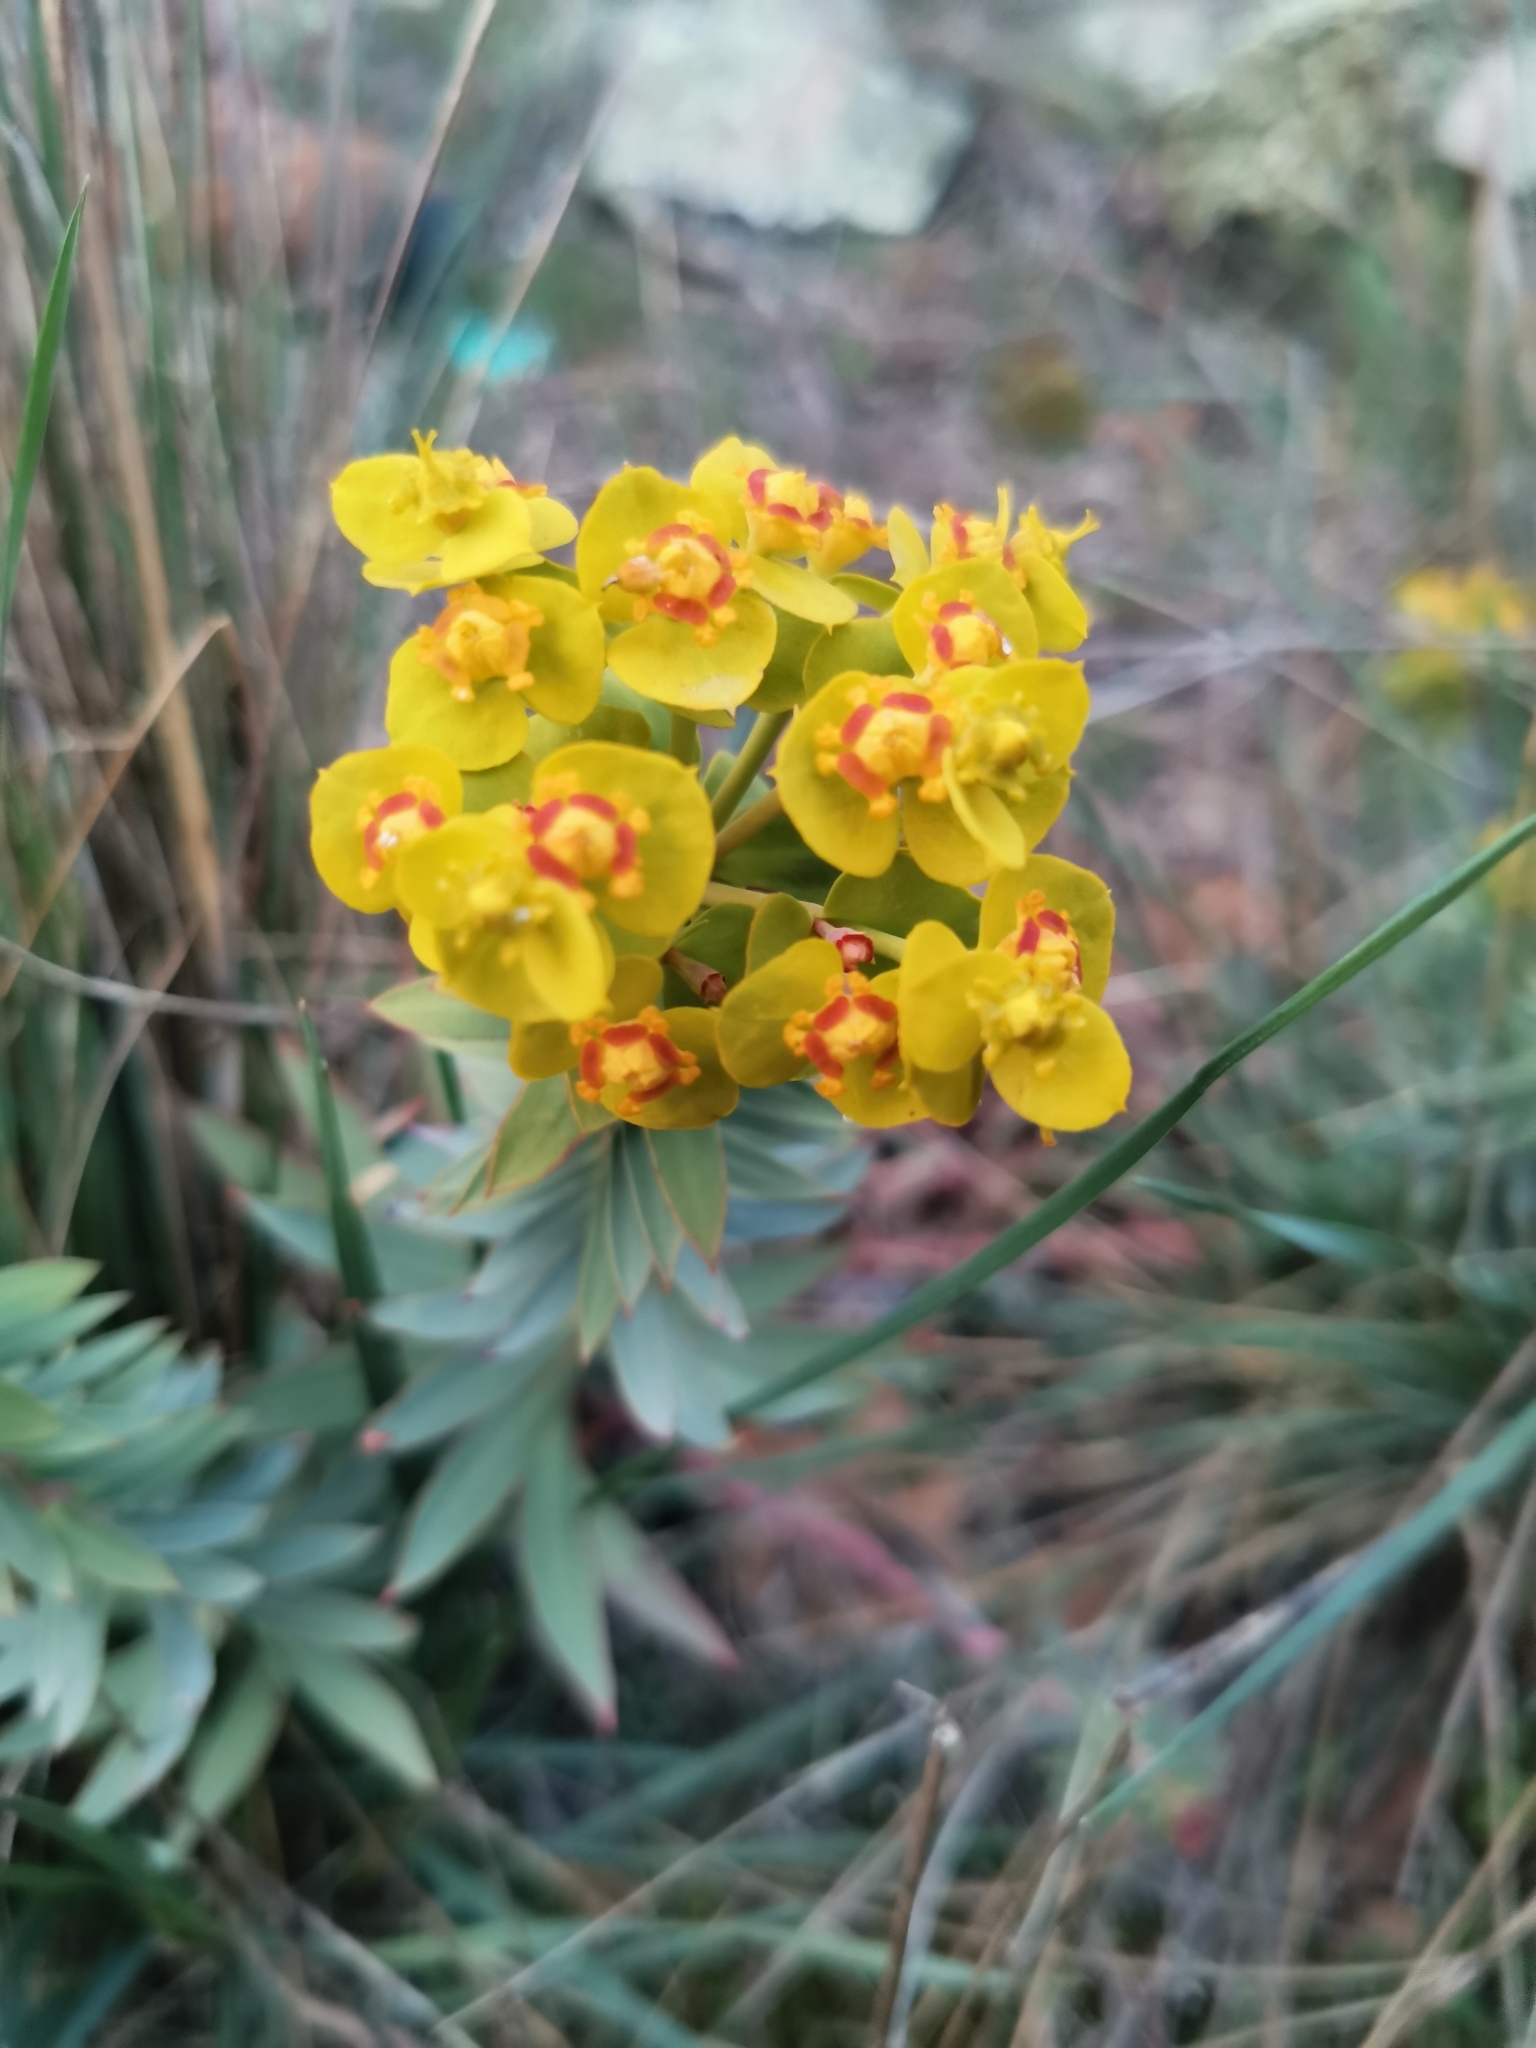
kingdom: Plantae
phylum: Tracheophyta
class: Magnoliopsida
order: Malpighiales
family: Euphorbiaceae
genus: Euphorbia
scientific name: Euphorbia rigida
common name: Upright myrtle spurge
